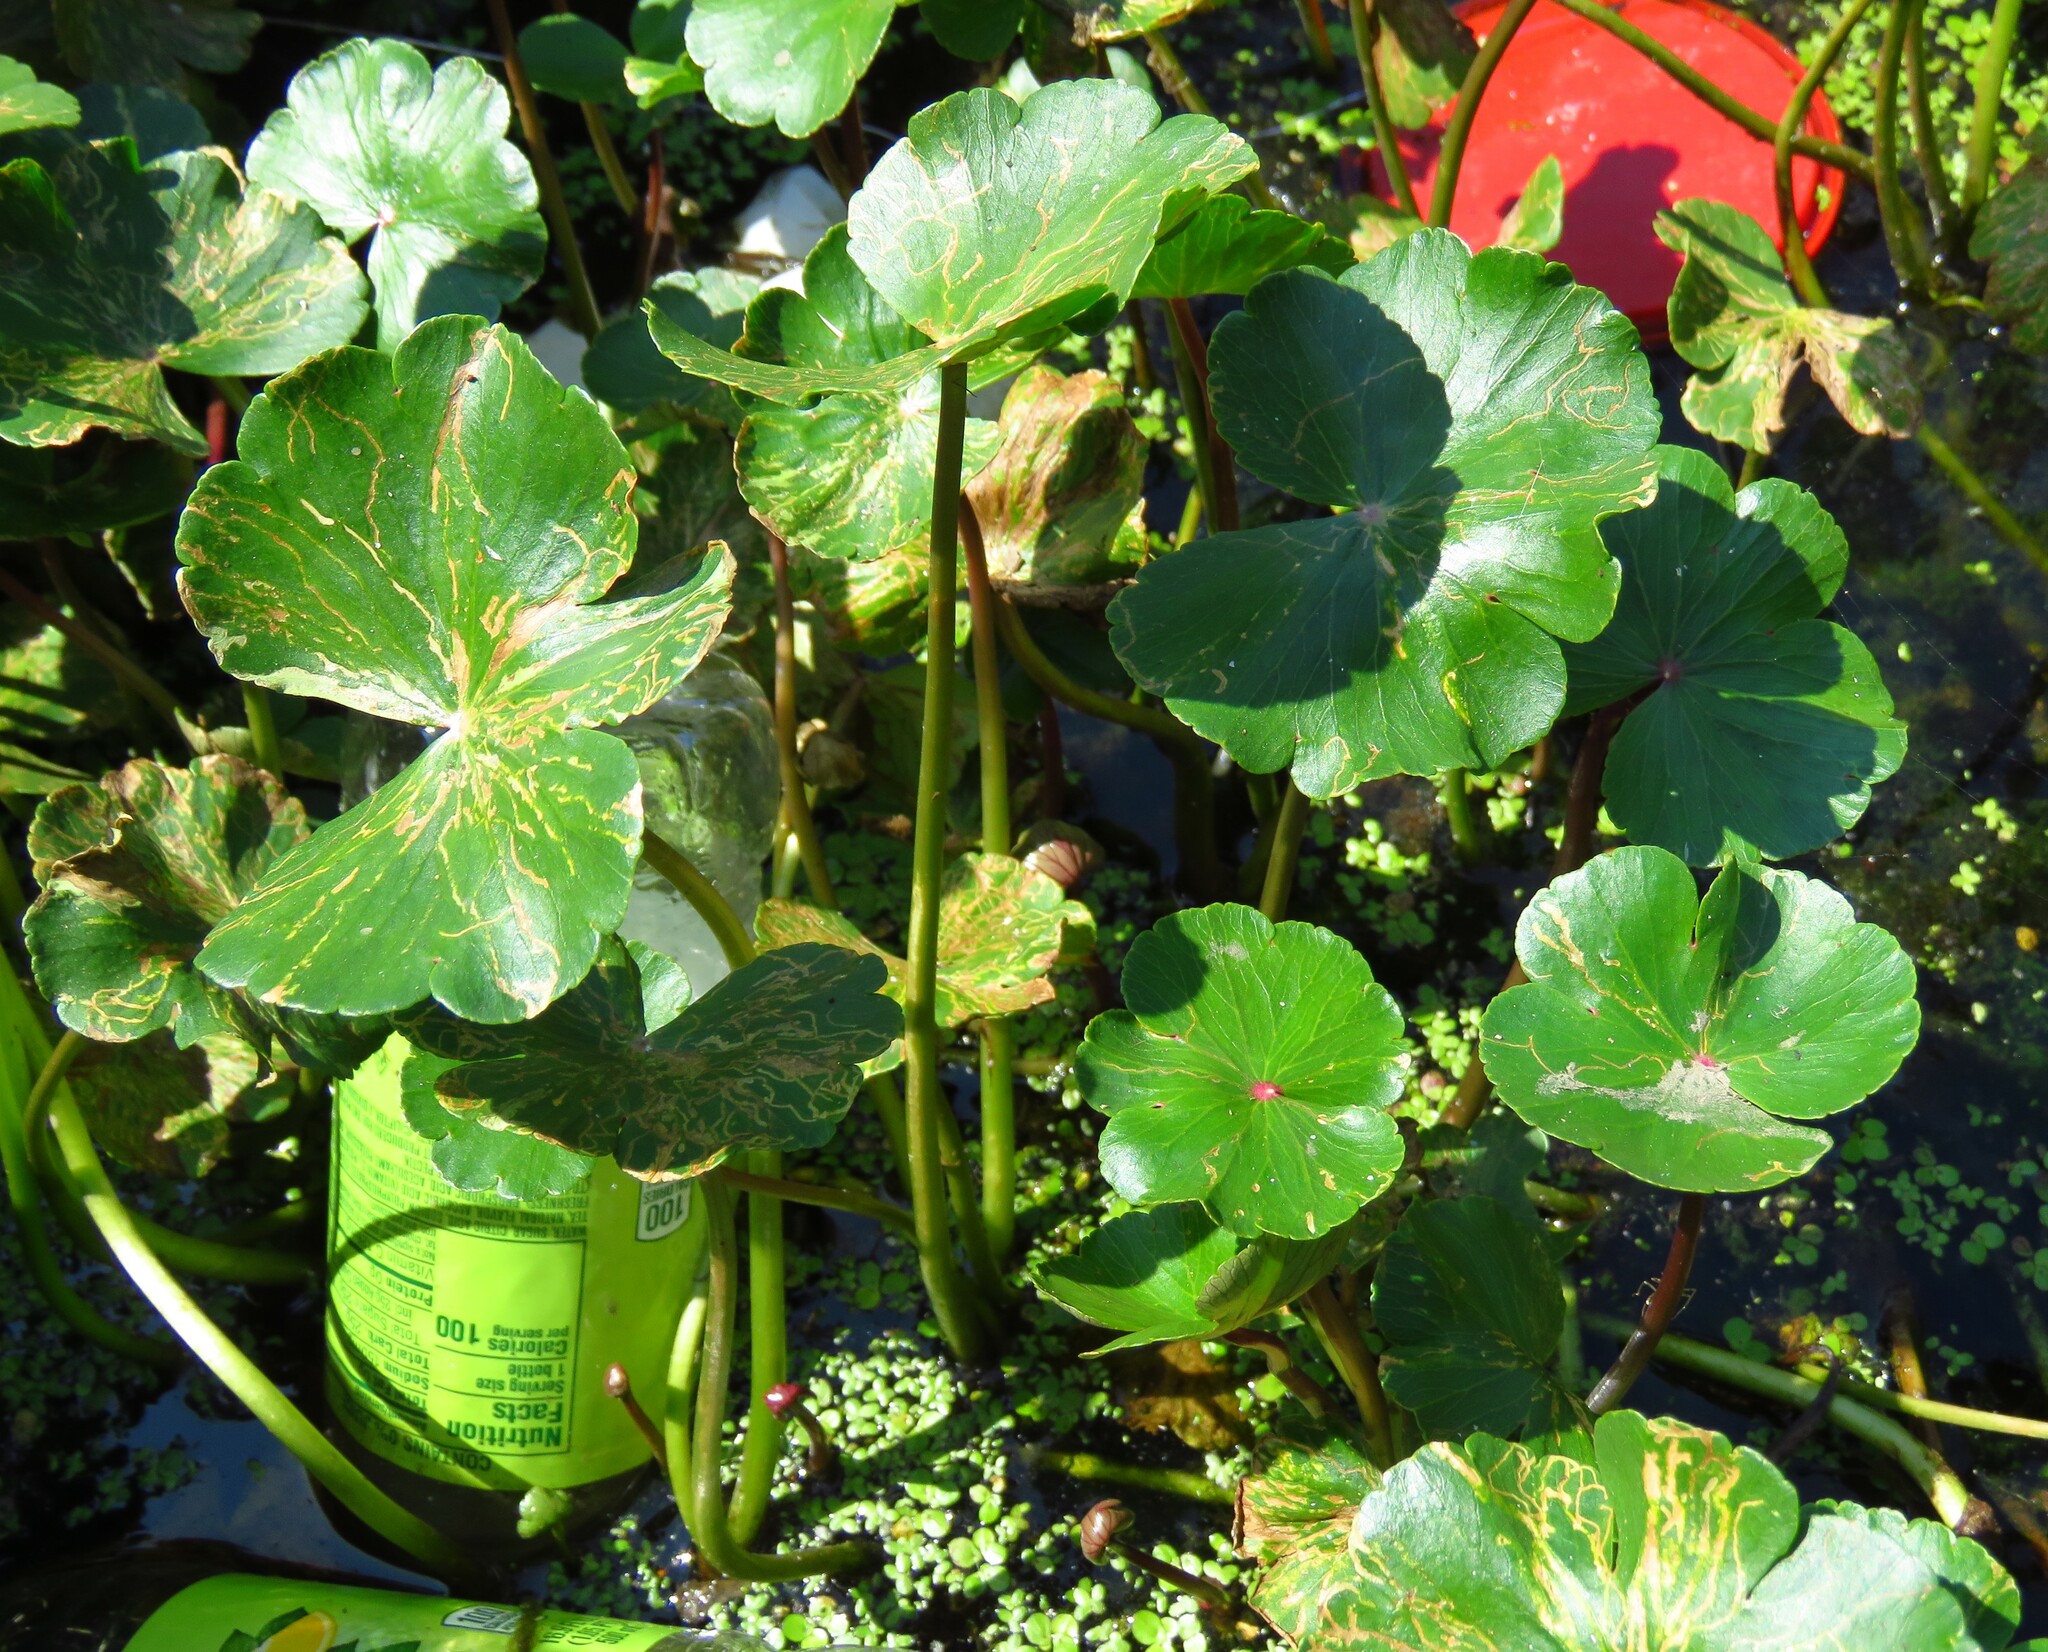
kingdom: Plantae
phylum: Tracheophyta
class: Magnoliopsida
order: Apiales
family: Araliaceae
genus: Hydrocotyle
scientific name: Hydrocotyle ranunculoides
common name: Floating pennywort
